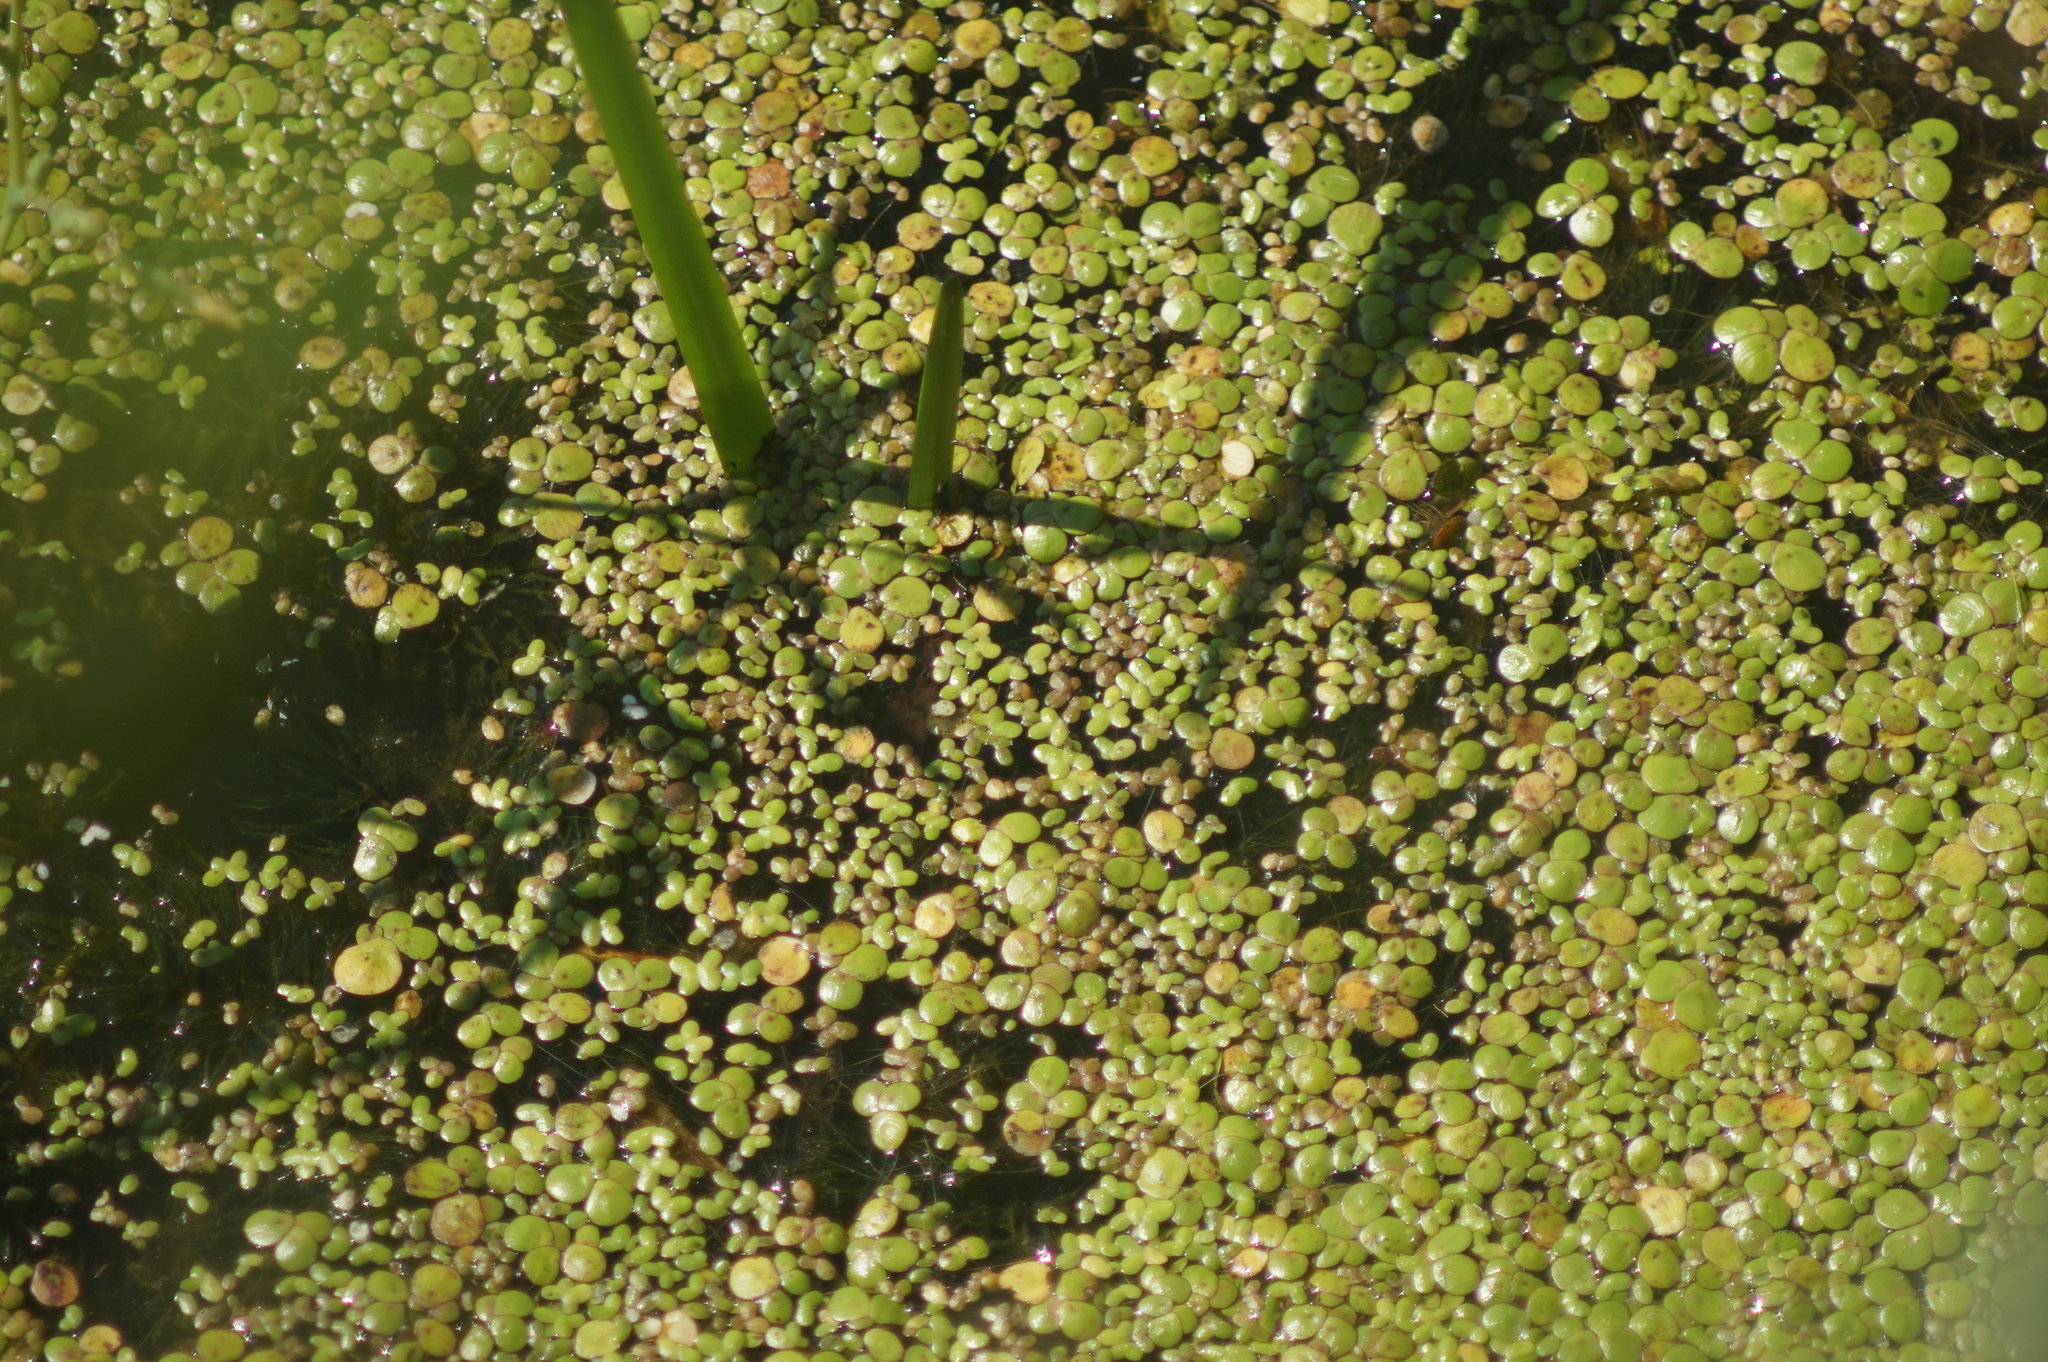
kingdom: Plantae
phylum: Tracheophyta
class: Liliopsida
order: Alismatales
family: Araceae
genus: Lemna
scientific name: Lemna minor
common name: Common duckweed
